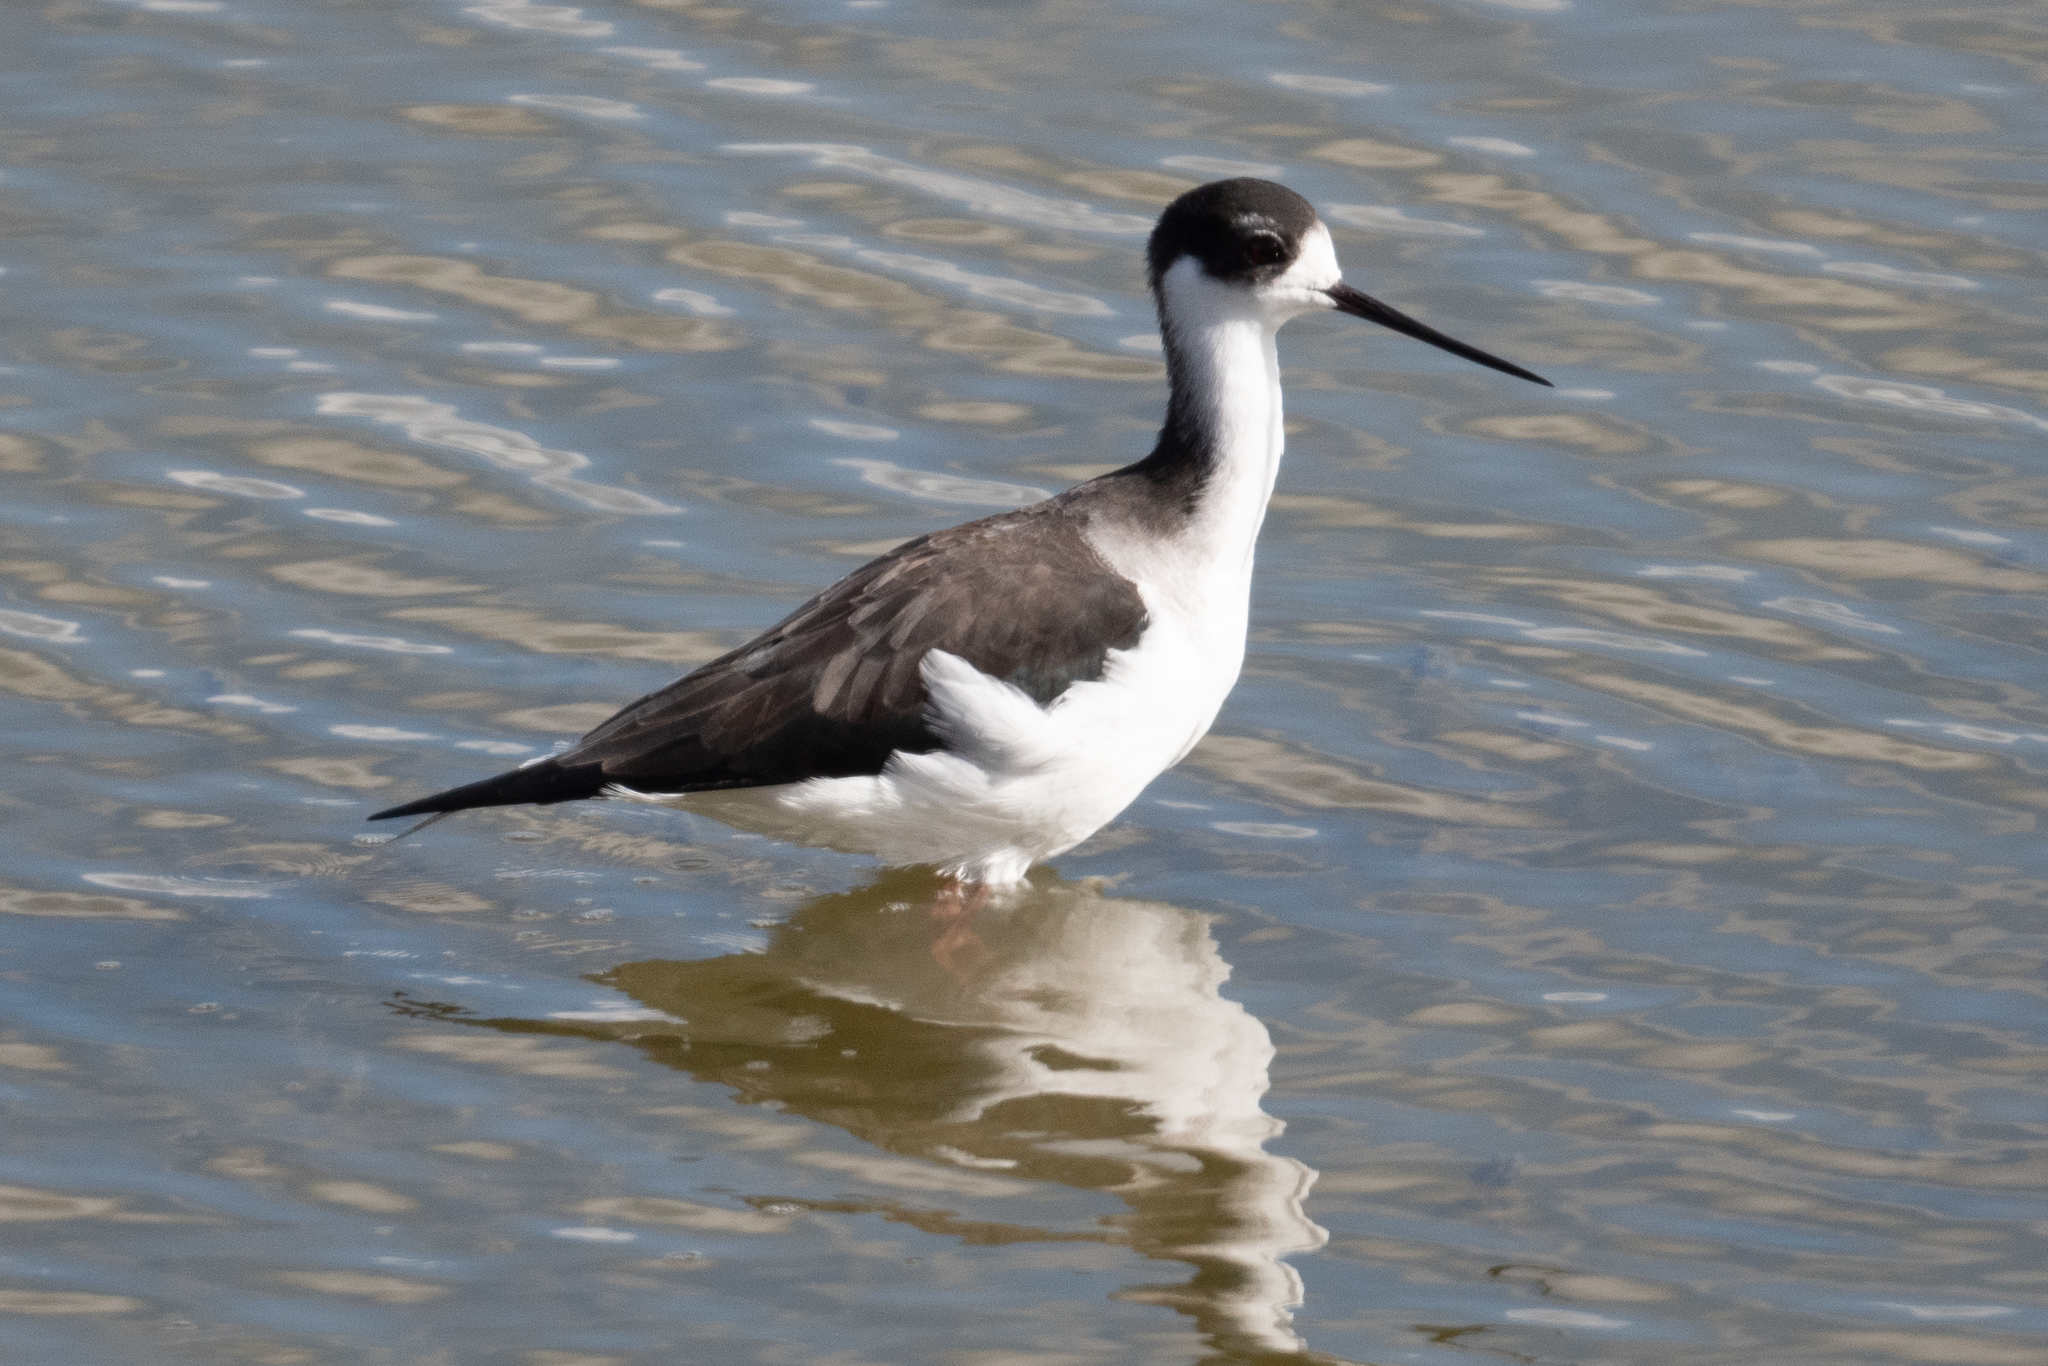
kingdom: Animalia
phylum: Chordata
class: Aves
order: Charadriiformes
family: Recurvirostridae
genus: Himantopus
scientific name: Himantopus mexicanus
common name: Black-necked stilt
